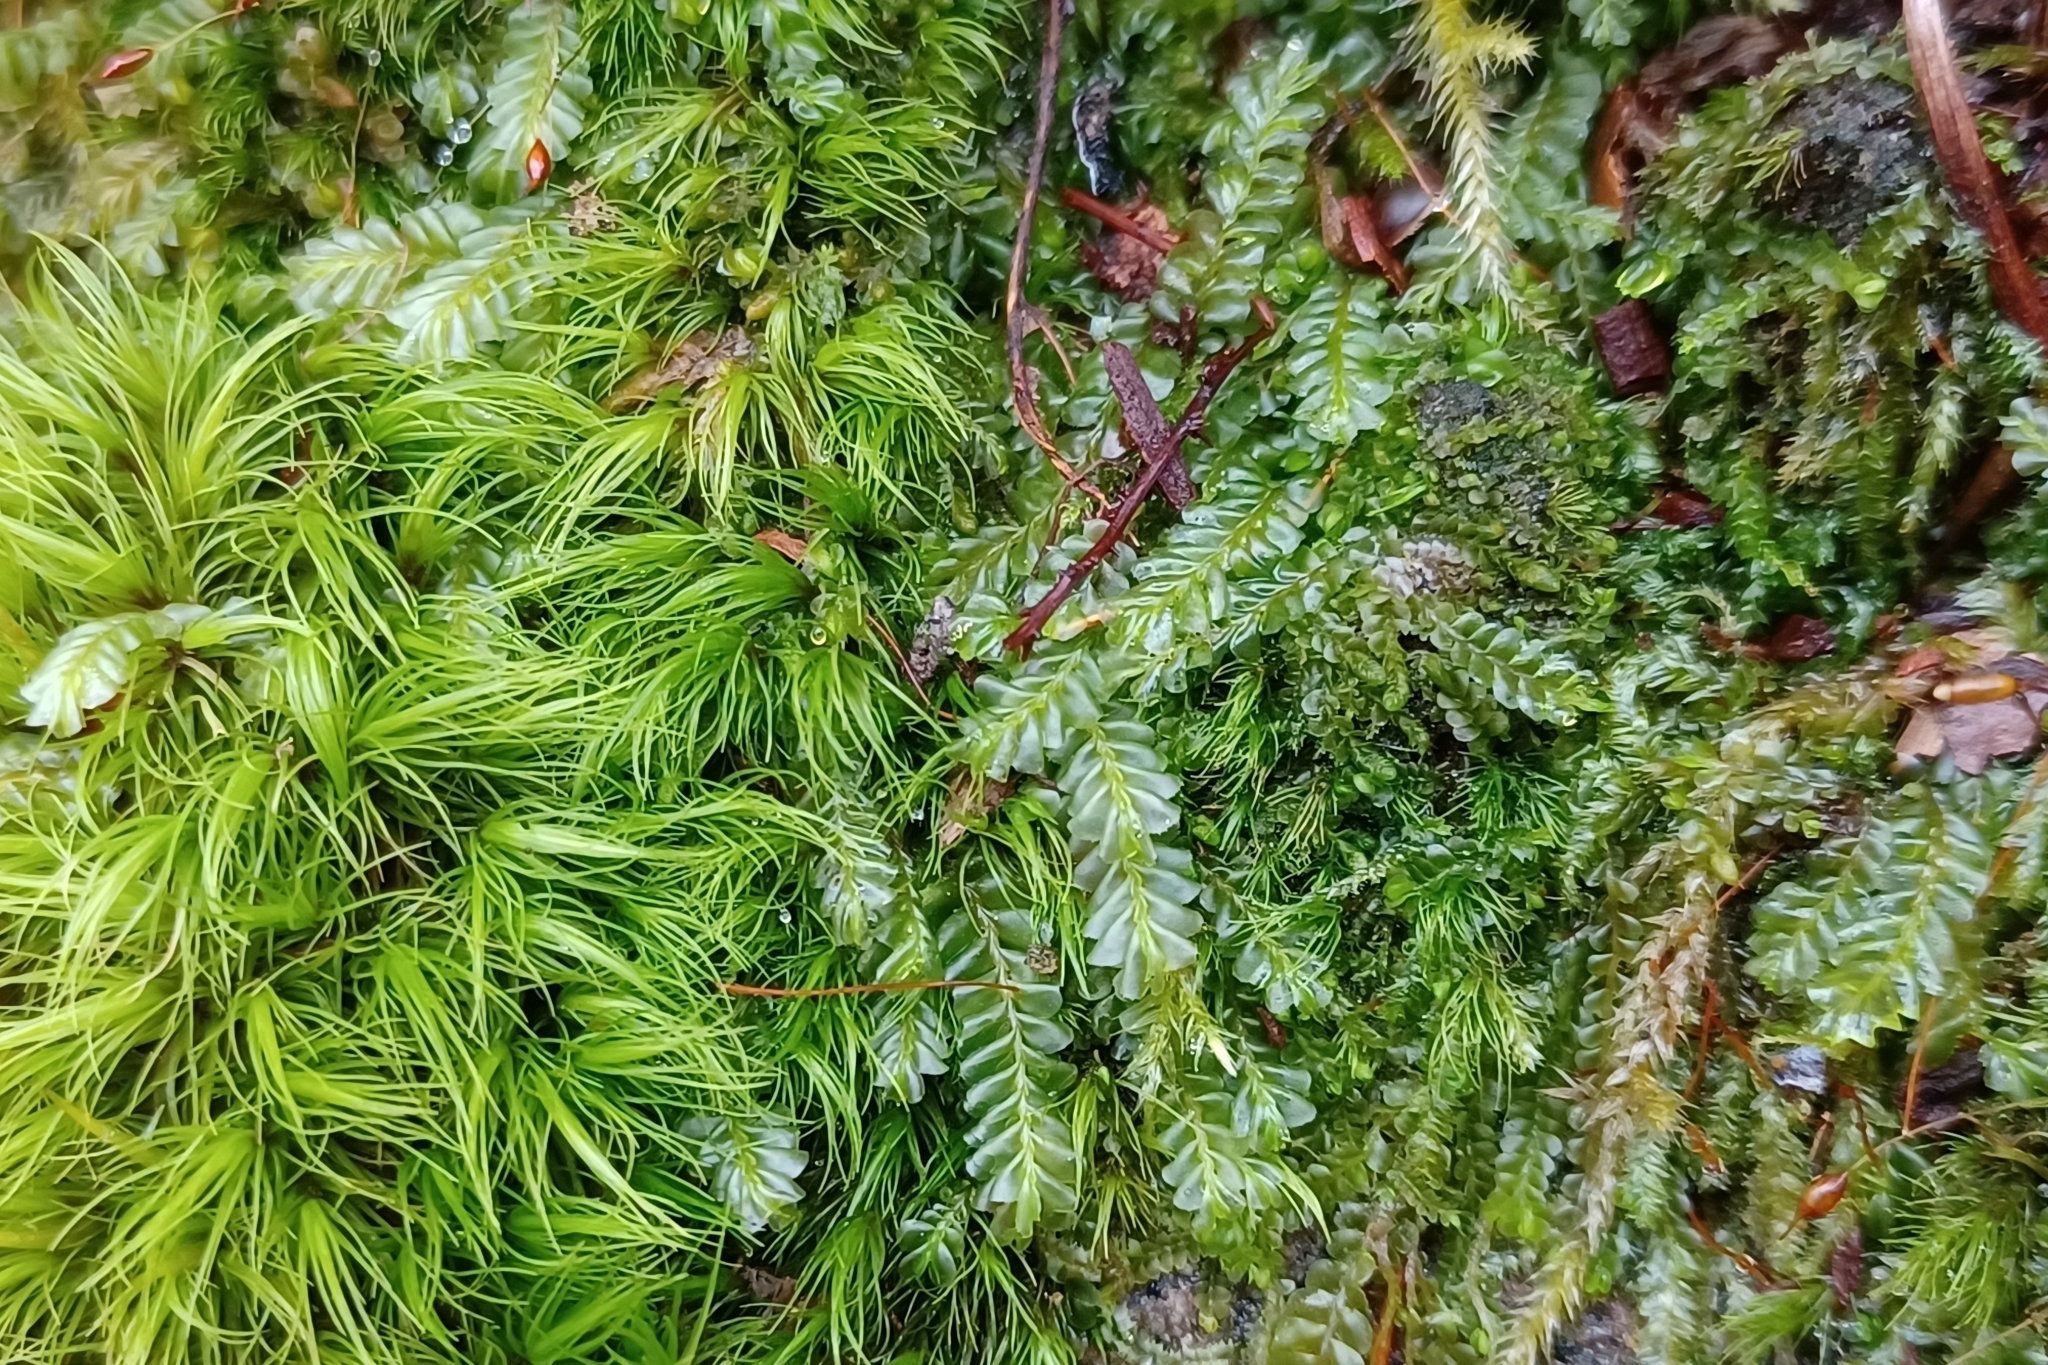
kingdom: Plantae
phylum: Marchantiophyta
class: Jungermanniopsida
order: Jungermanniales
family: Plagiochilaceae
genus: Plagiochila
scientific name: Plagiochila porelloides
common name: Lesser featherwort
